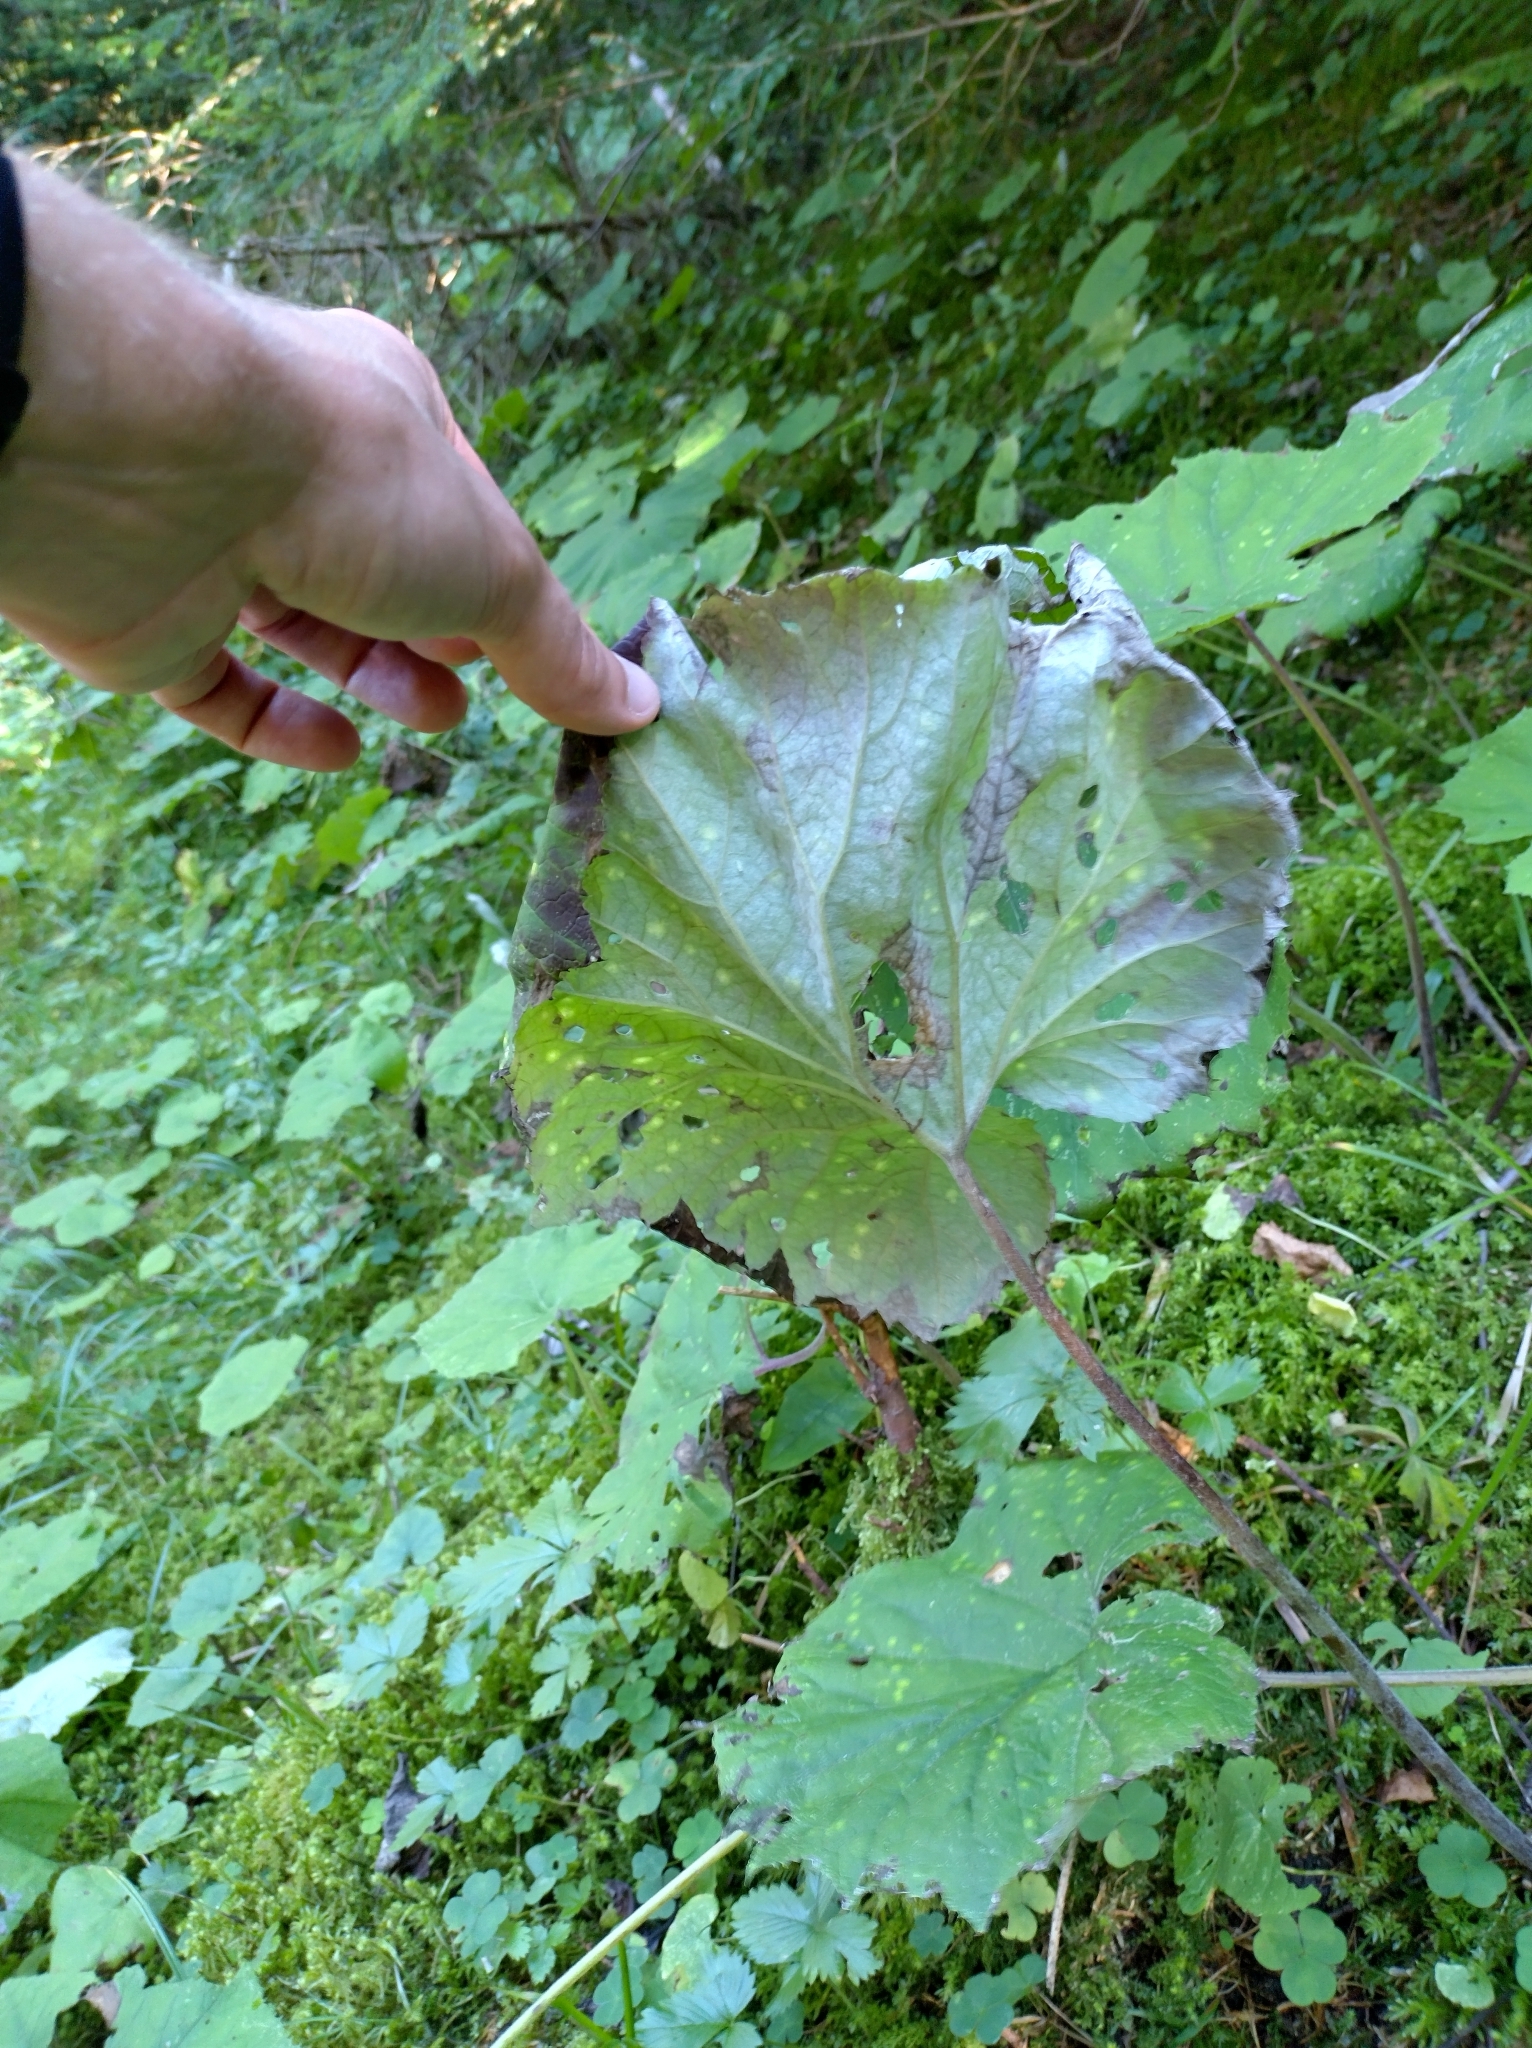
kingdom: Plantae
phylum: Tracheophyta
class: Magnoliopsida
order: Asterales
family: Asteraceae
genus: Tussilago
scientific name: Tussilago farfara
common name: Coltsfoot
